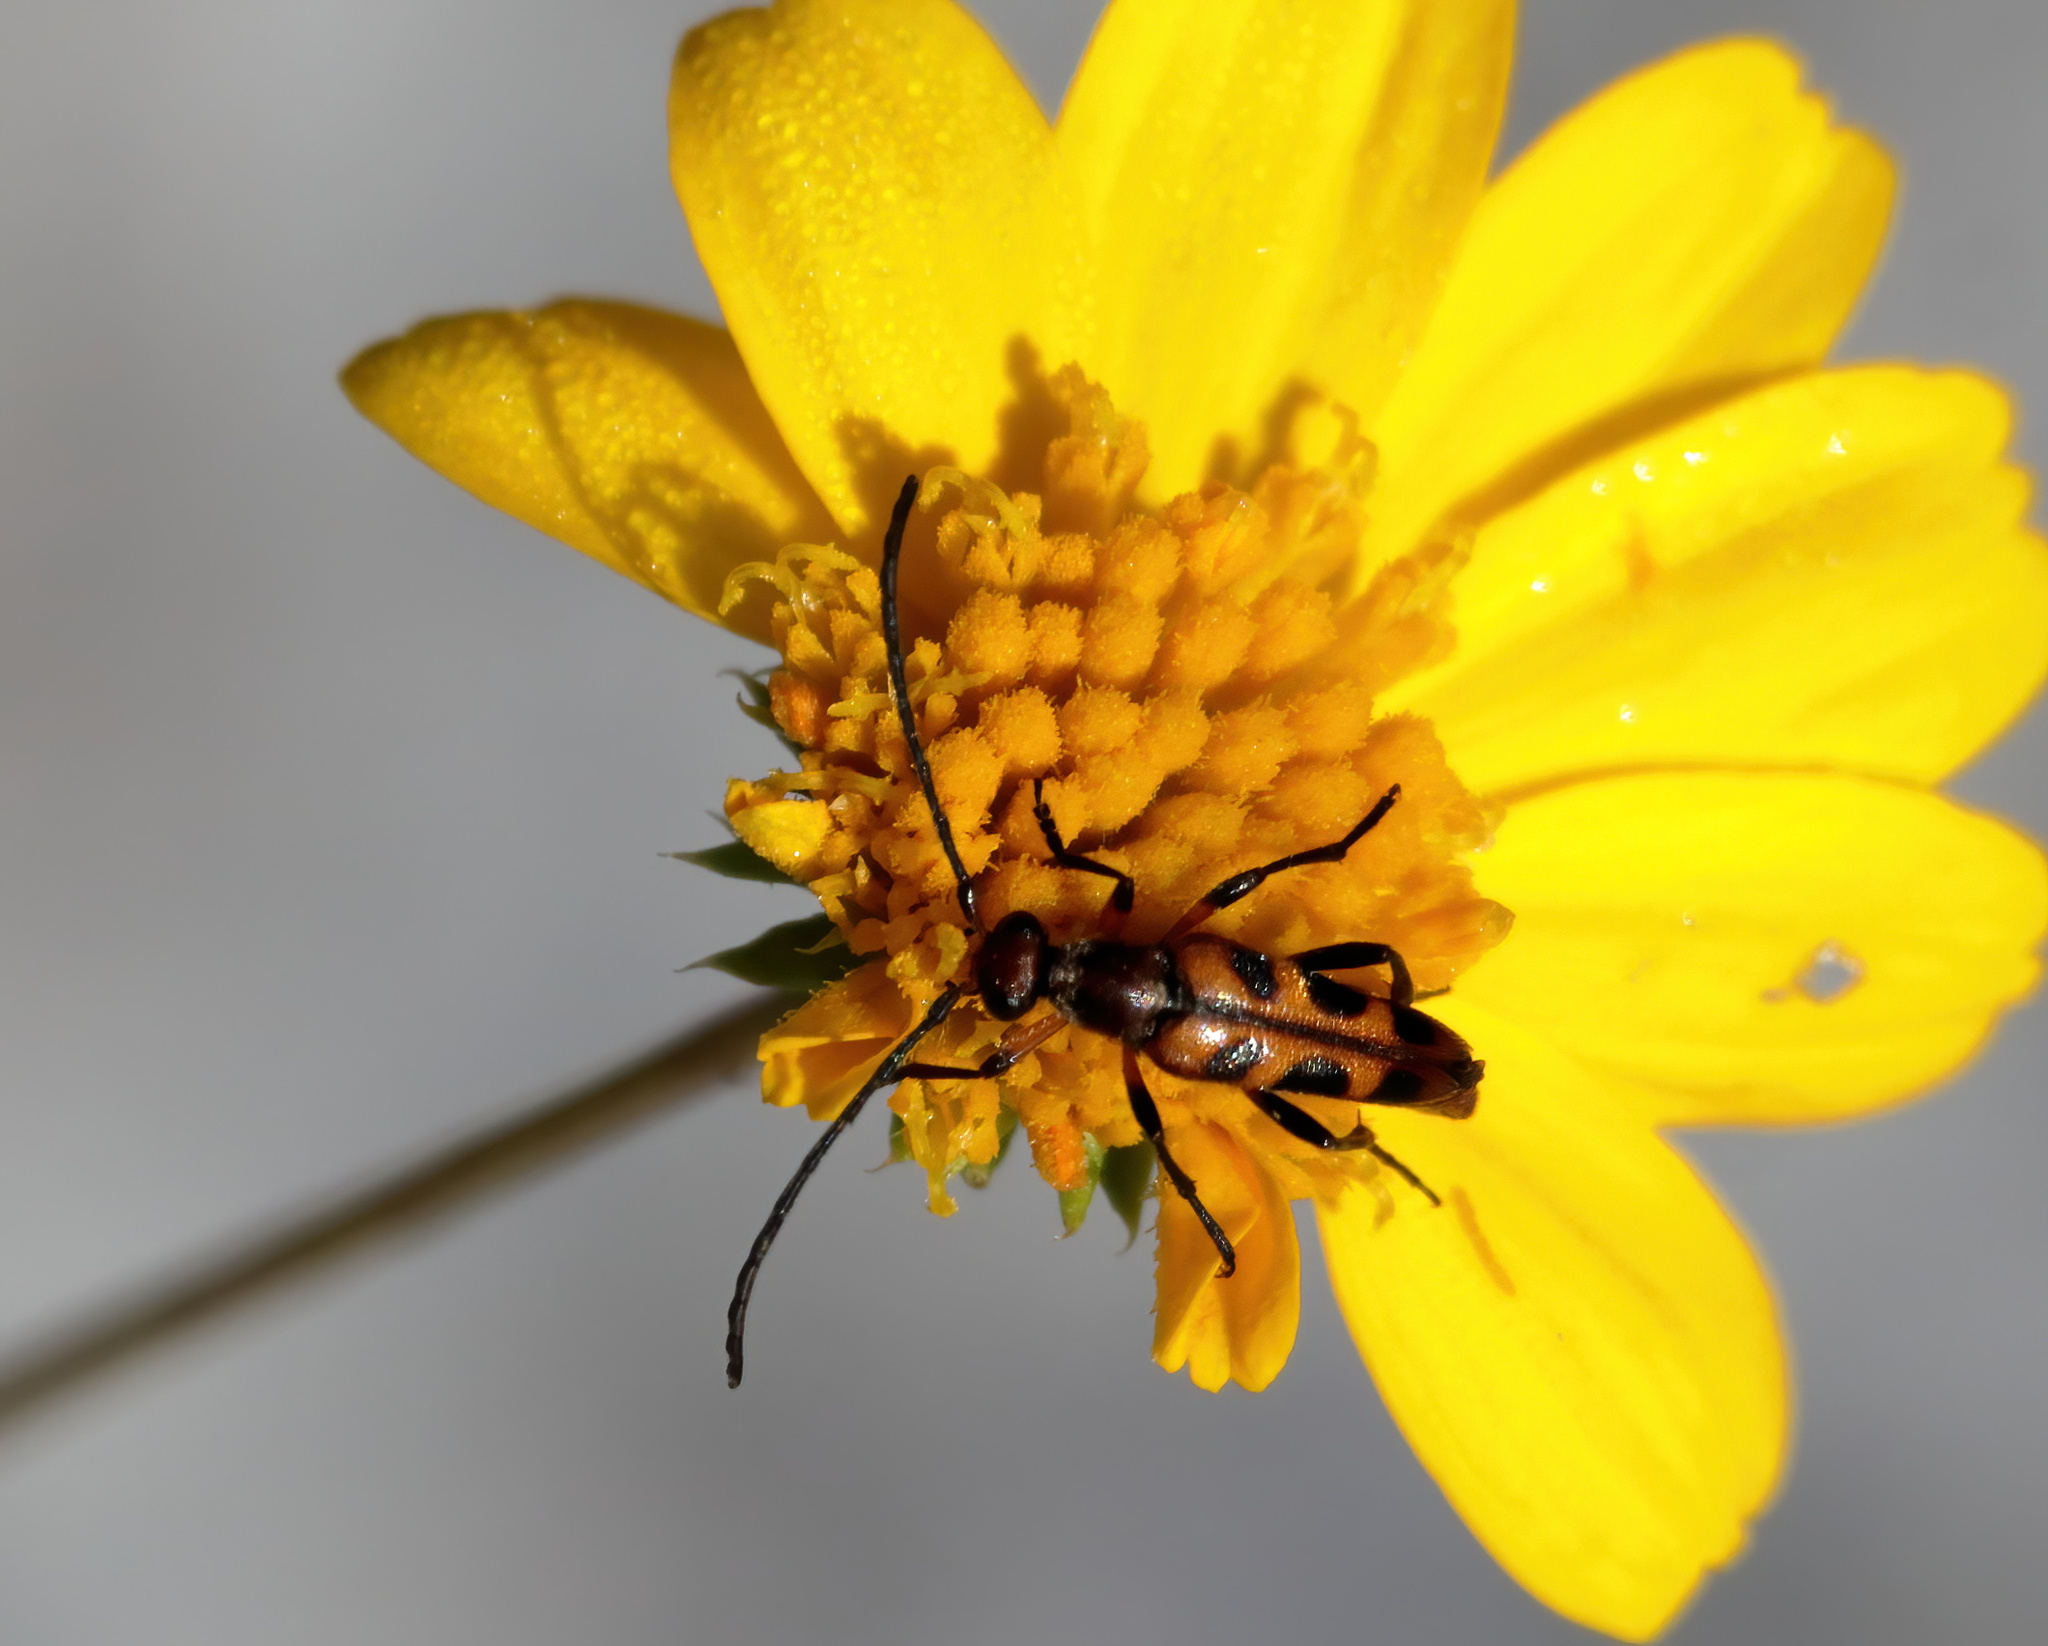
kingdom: Animalia
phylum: Arthropoda
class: Insecta
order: Coleoptera
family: Cerambycidae
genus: Strangalia
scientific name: Strangalia sexnotata
